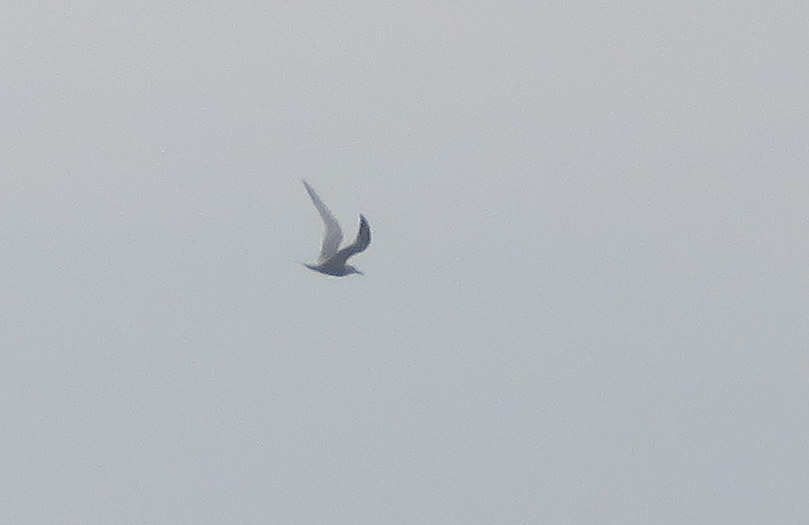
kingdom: Animalia
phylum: Chordata
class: Aves
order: Charadriiformes
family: Laridae
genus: Sterna
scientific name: Sterna
